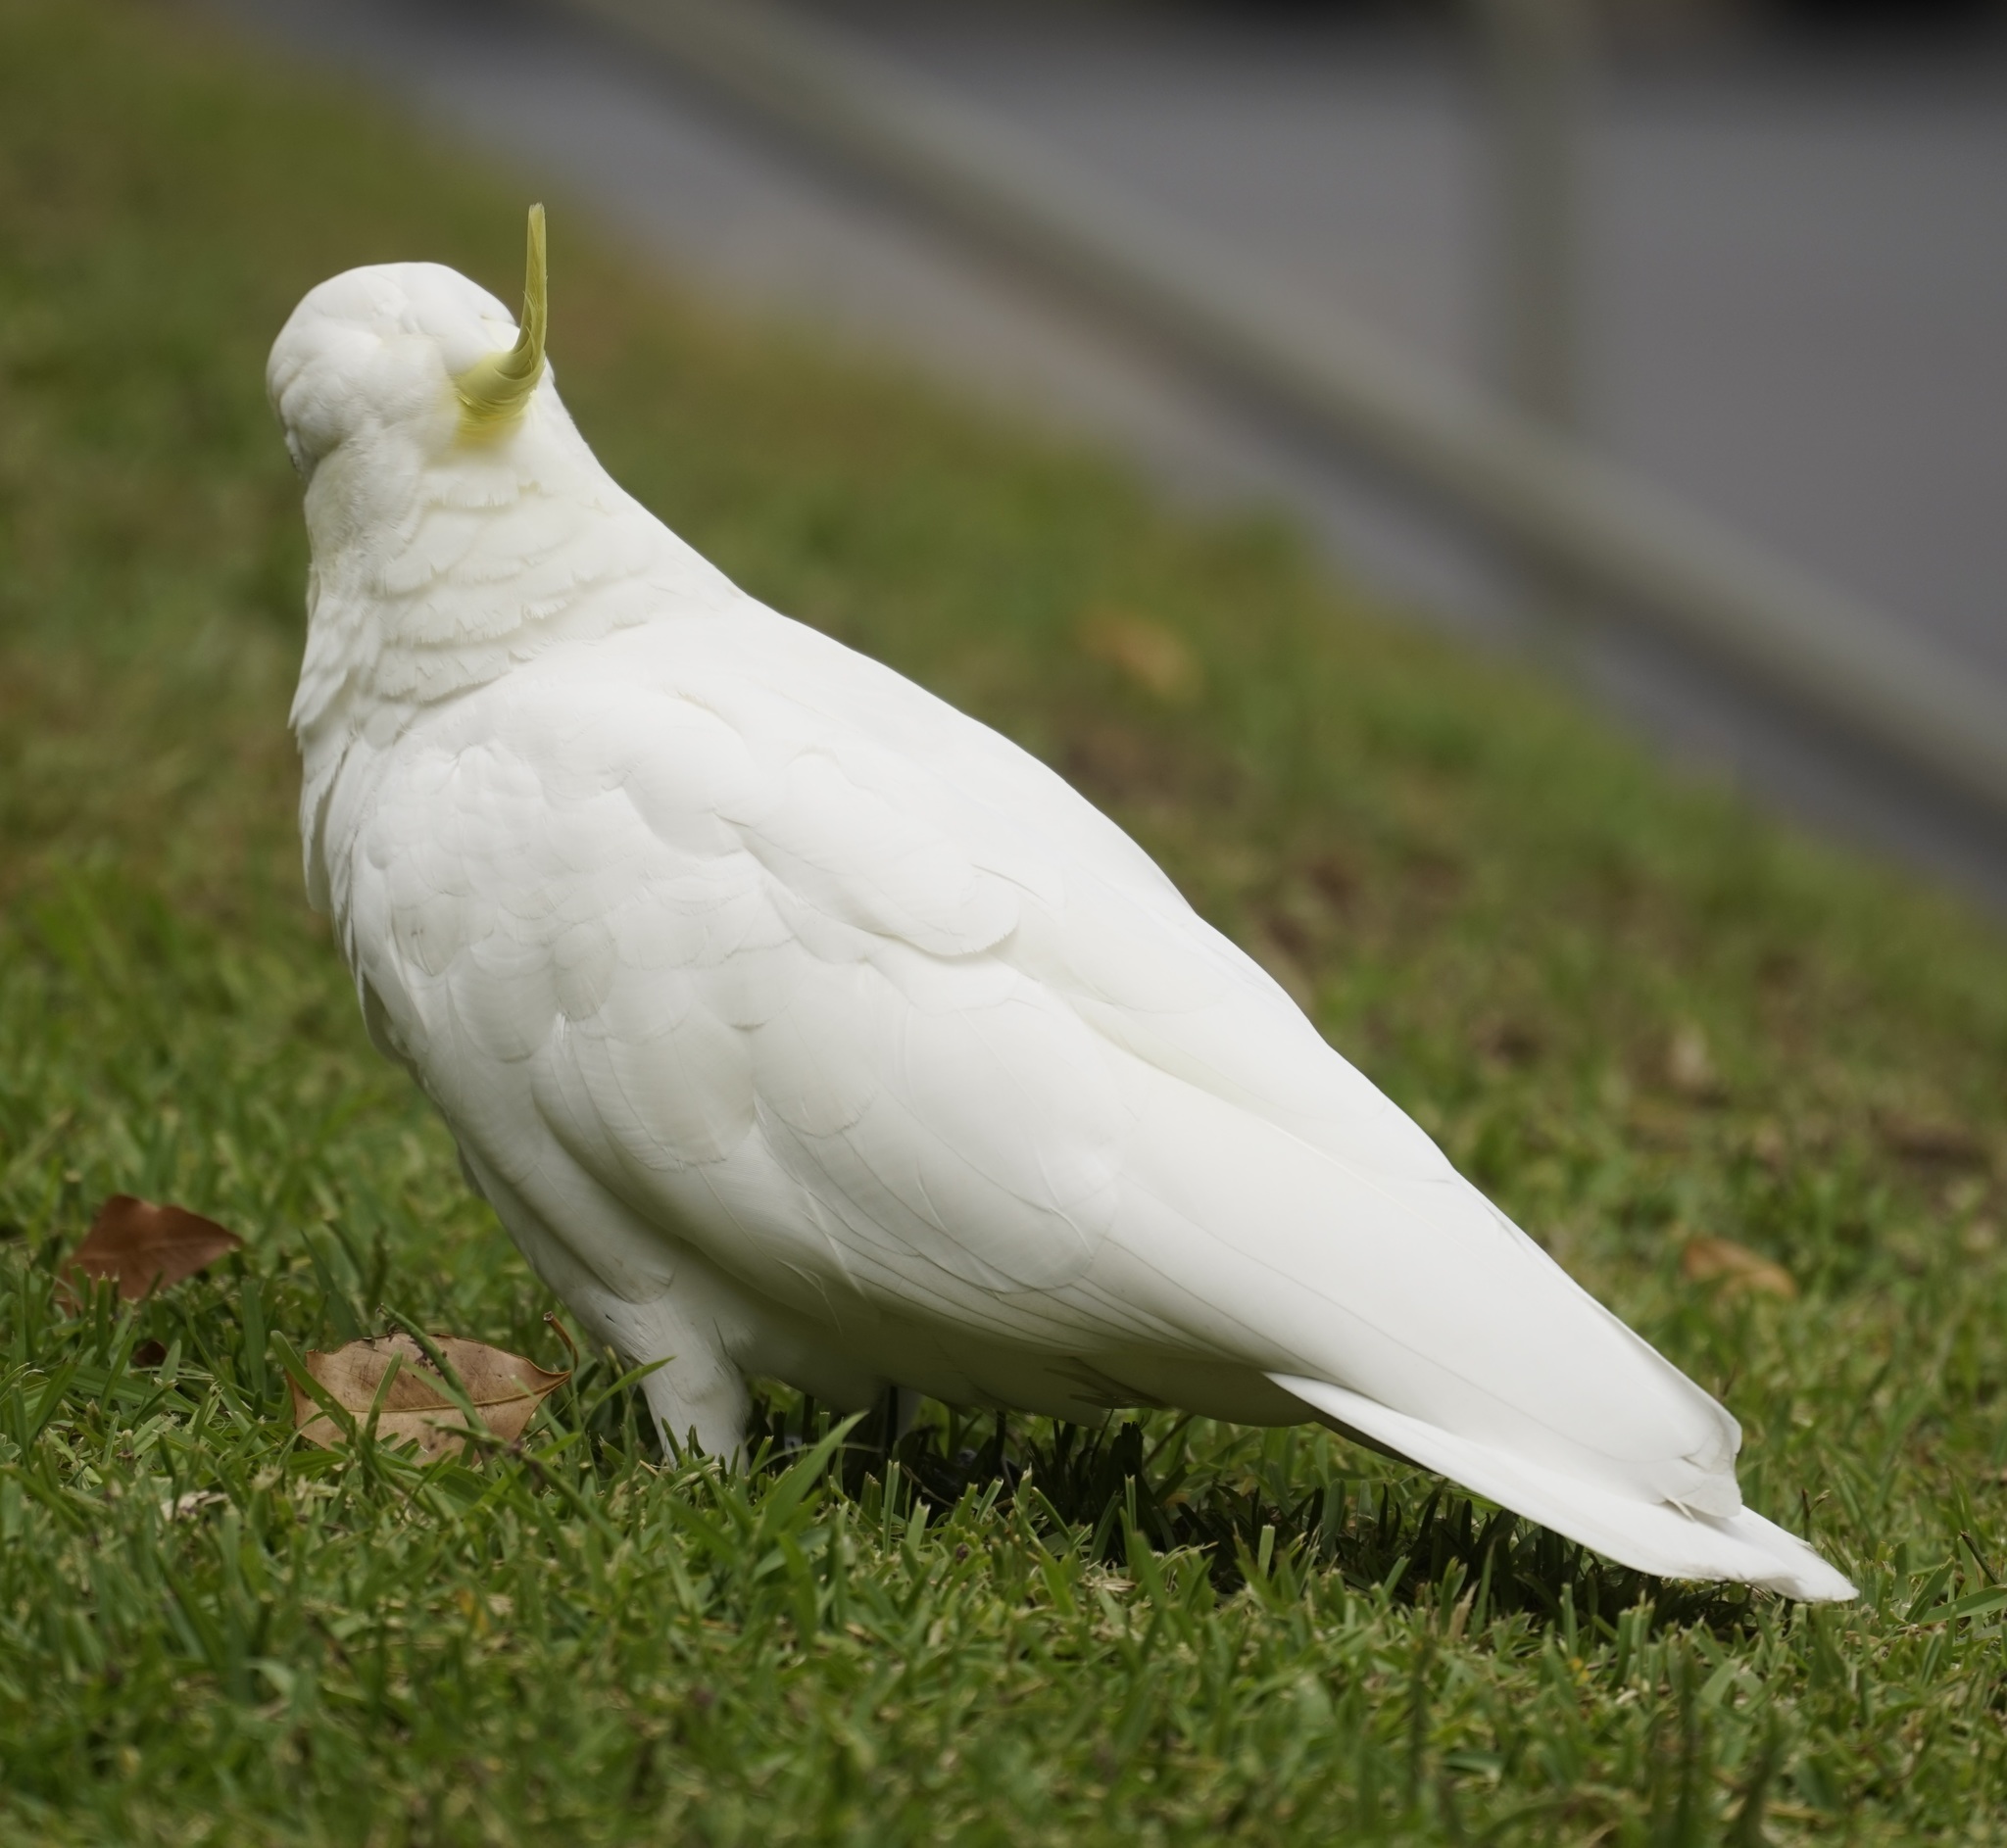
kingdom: Animalia
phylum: Chordata
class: Aves
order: Psittaciformes
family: Psittacidae
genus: Cacatua
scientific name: Cacatua galerita
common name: Sulphur-crested cockatoo
